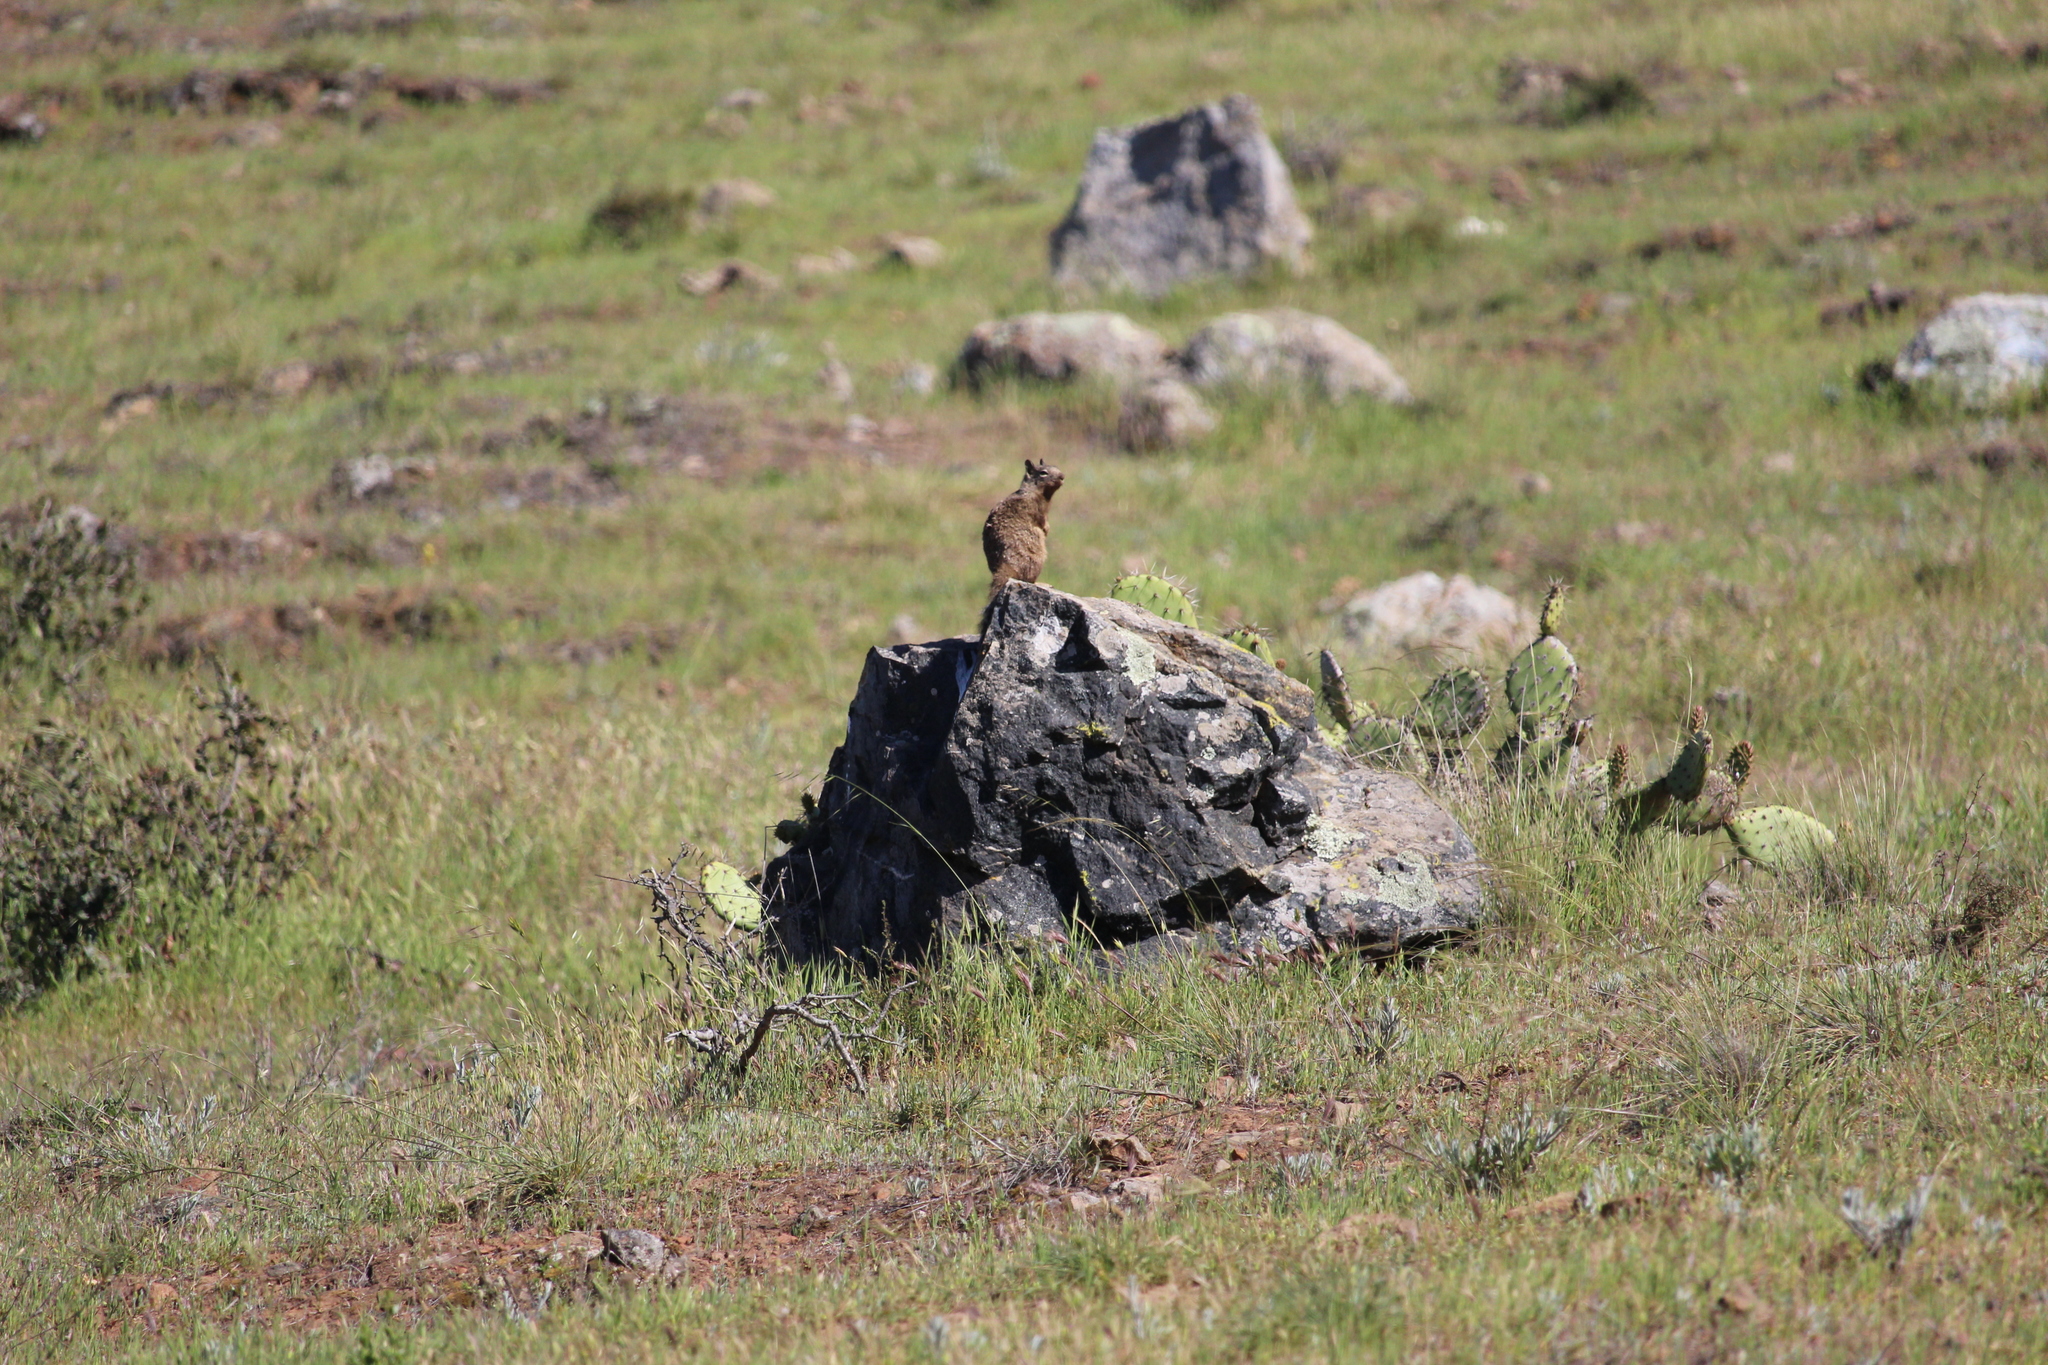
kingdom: Animalia
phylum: Chordata
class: Mammalia
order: Rodentia
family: Sciuridae
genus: Otospermophilus
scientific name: Otospermophilus beecheyi
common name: California ground squirrel
